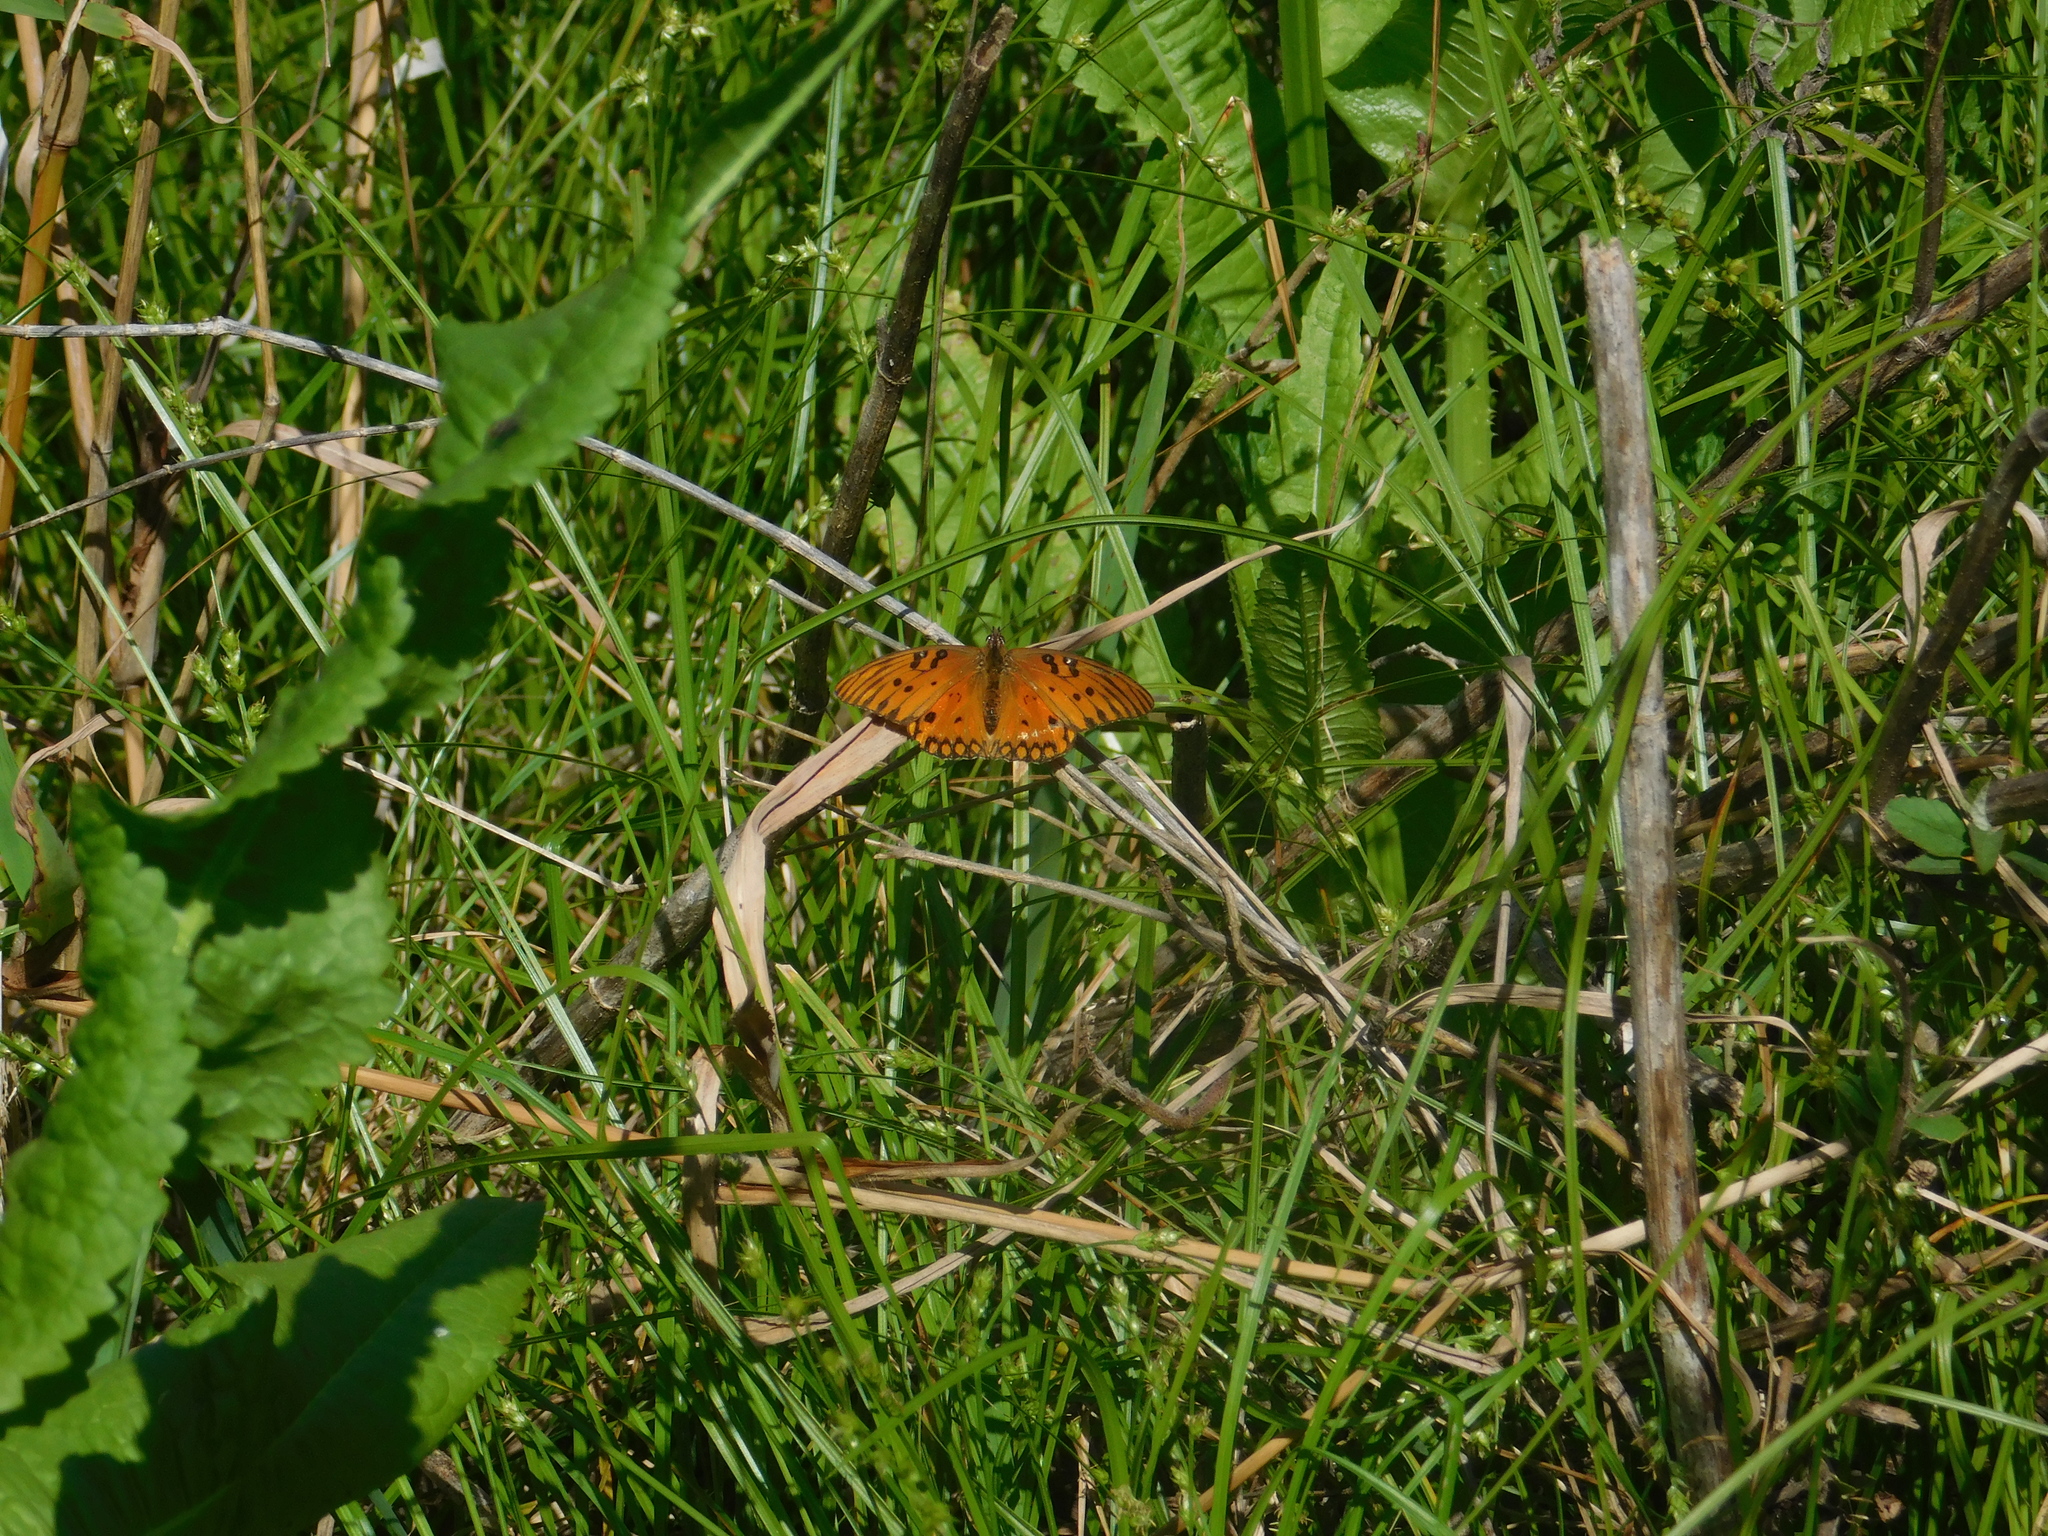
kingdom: Animalia
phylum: Arthropoda
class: Insecta
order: Lepidoptera
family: Nymphalidae
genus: Dione
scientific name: Dione vanillae
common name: Gulf fritillary
